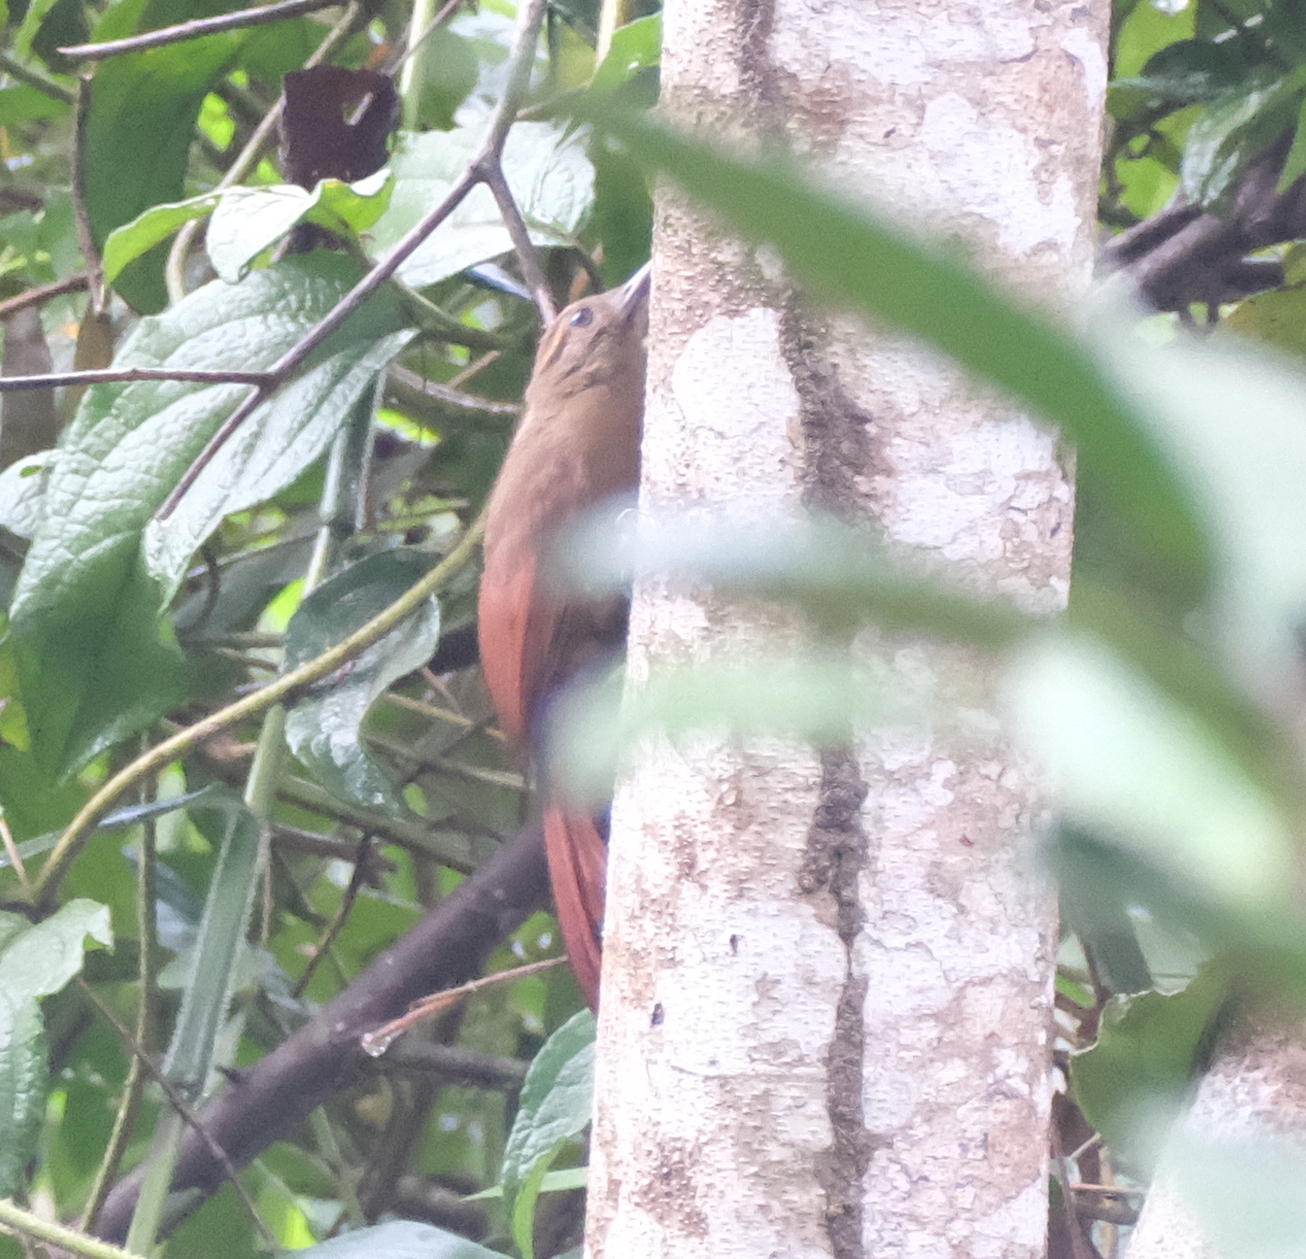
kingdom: Animalia
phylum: Chordata
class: Aves
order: Passeriformes
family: Furnariidae
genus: Dendrocincla
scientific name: Dendrocincla fuliginosa
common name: Plain-brown woodcreeper
